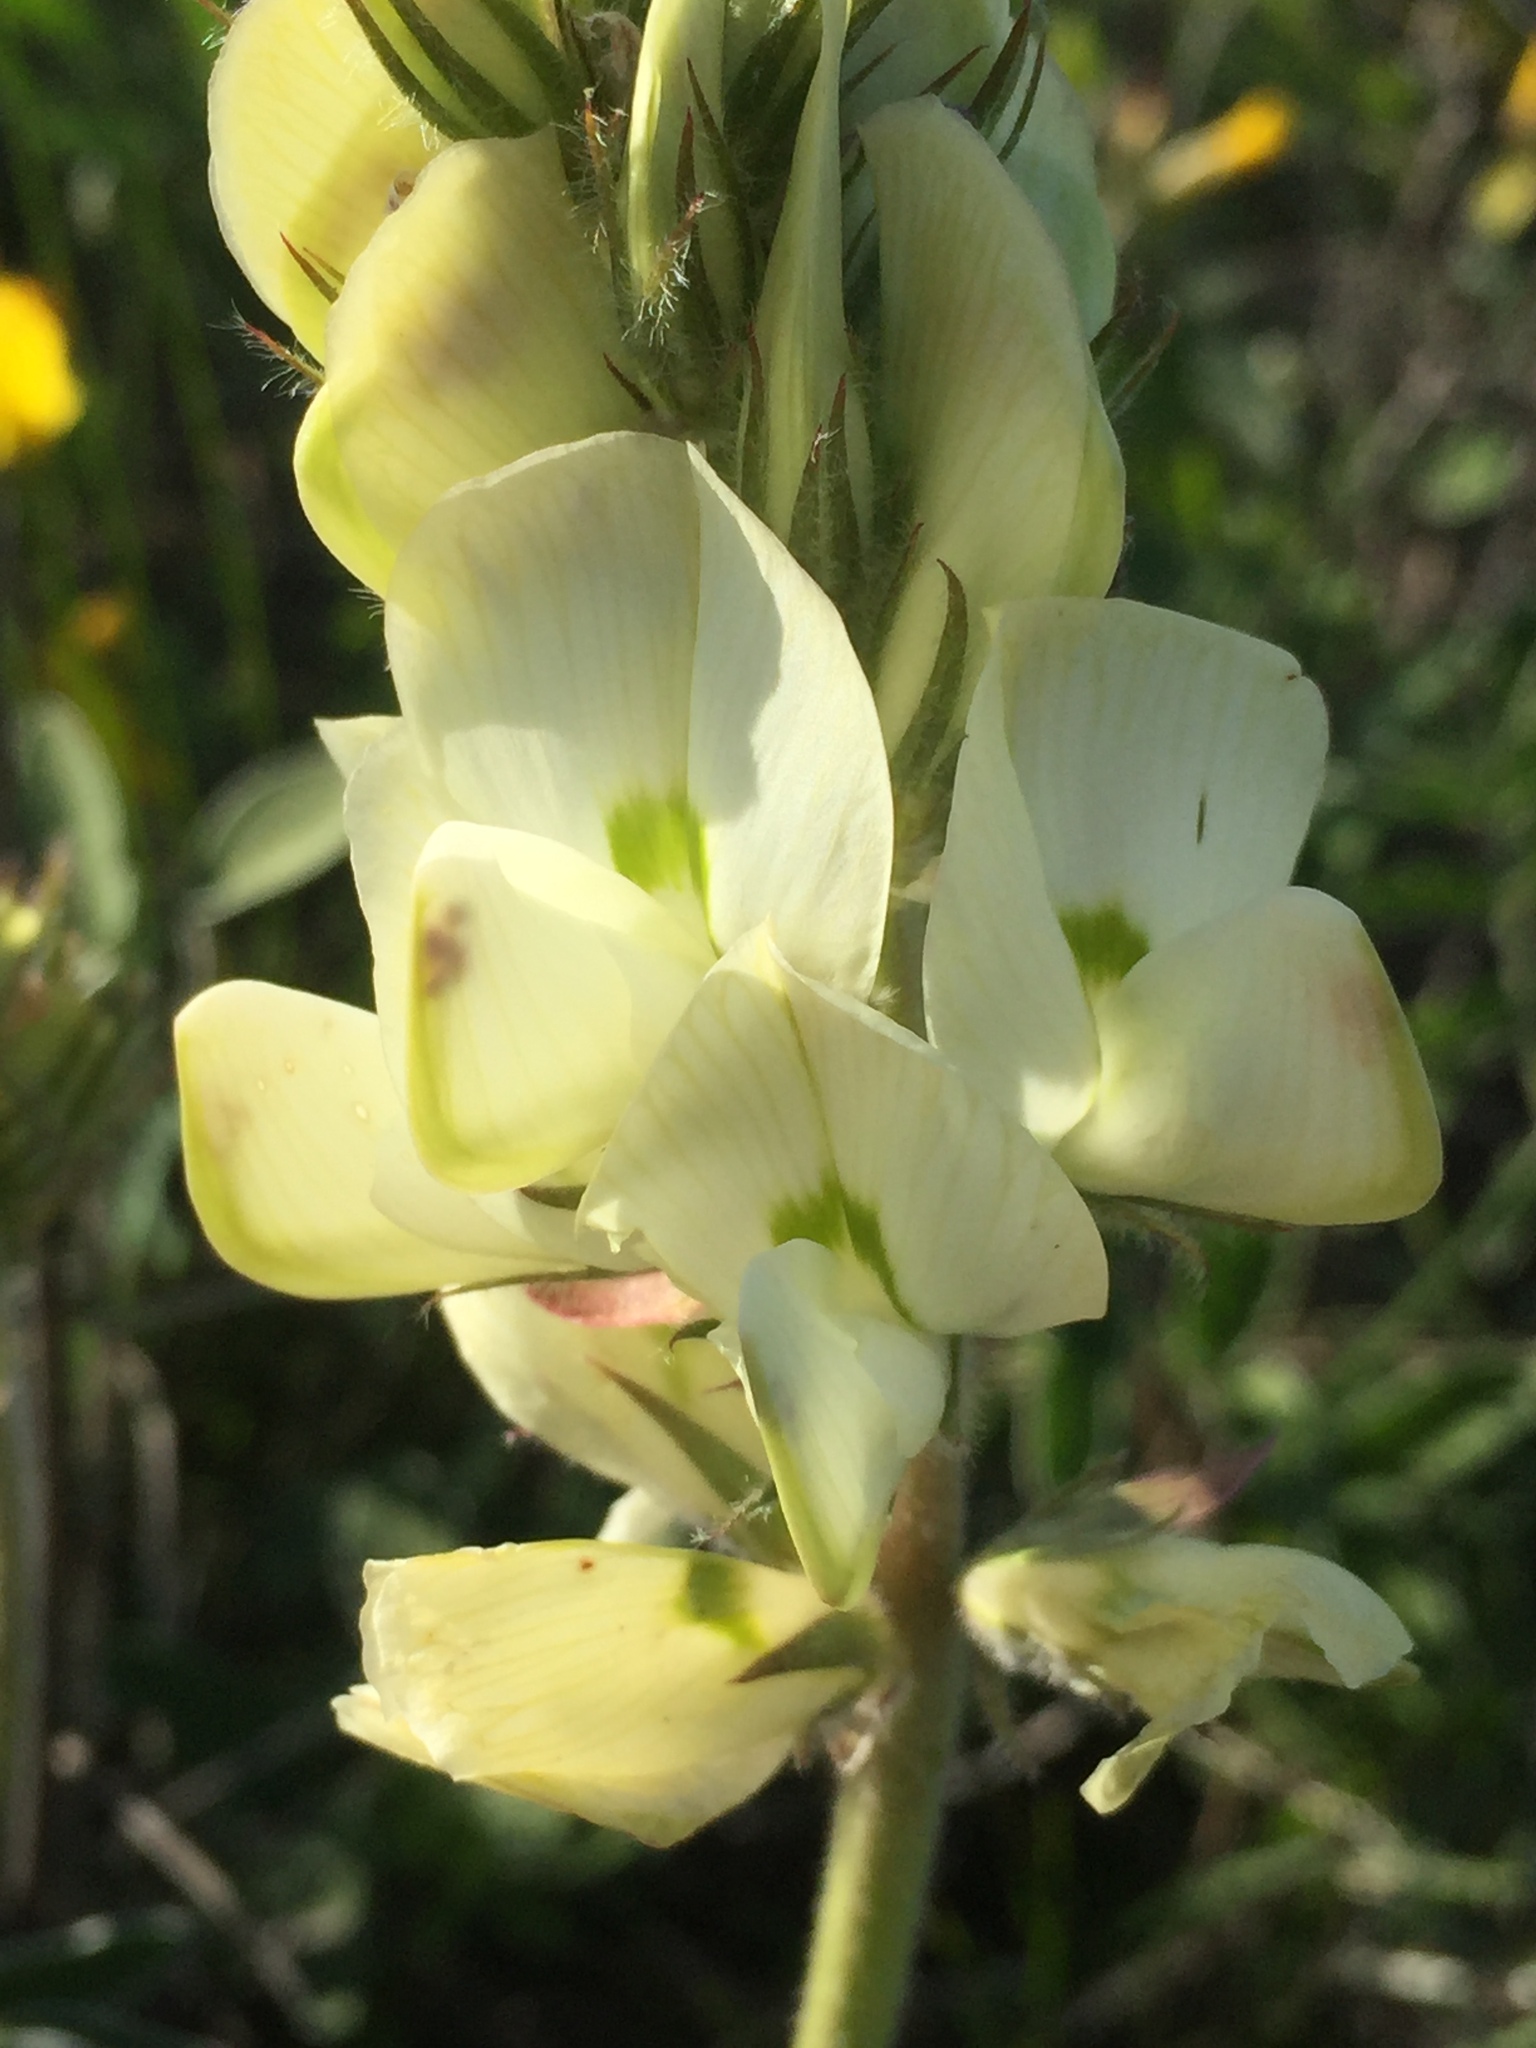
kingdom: Plantae
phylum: Tracheophyta
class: Magnoliopsida
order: Fabales
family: Fabaceae
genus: Hedysarum
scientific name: Hedysarum grandiflorum
